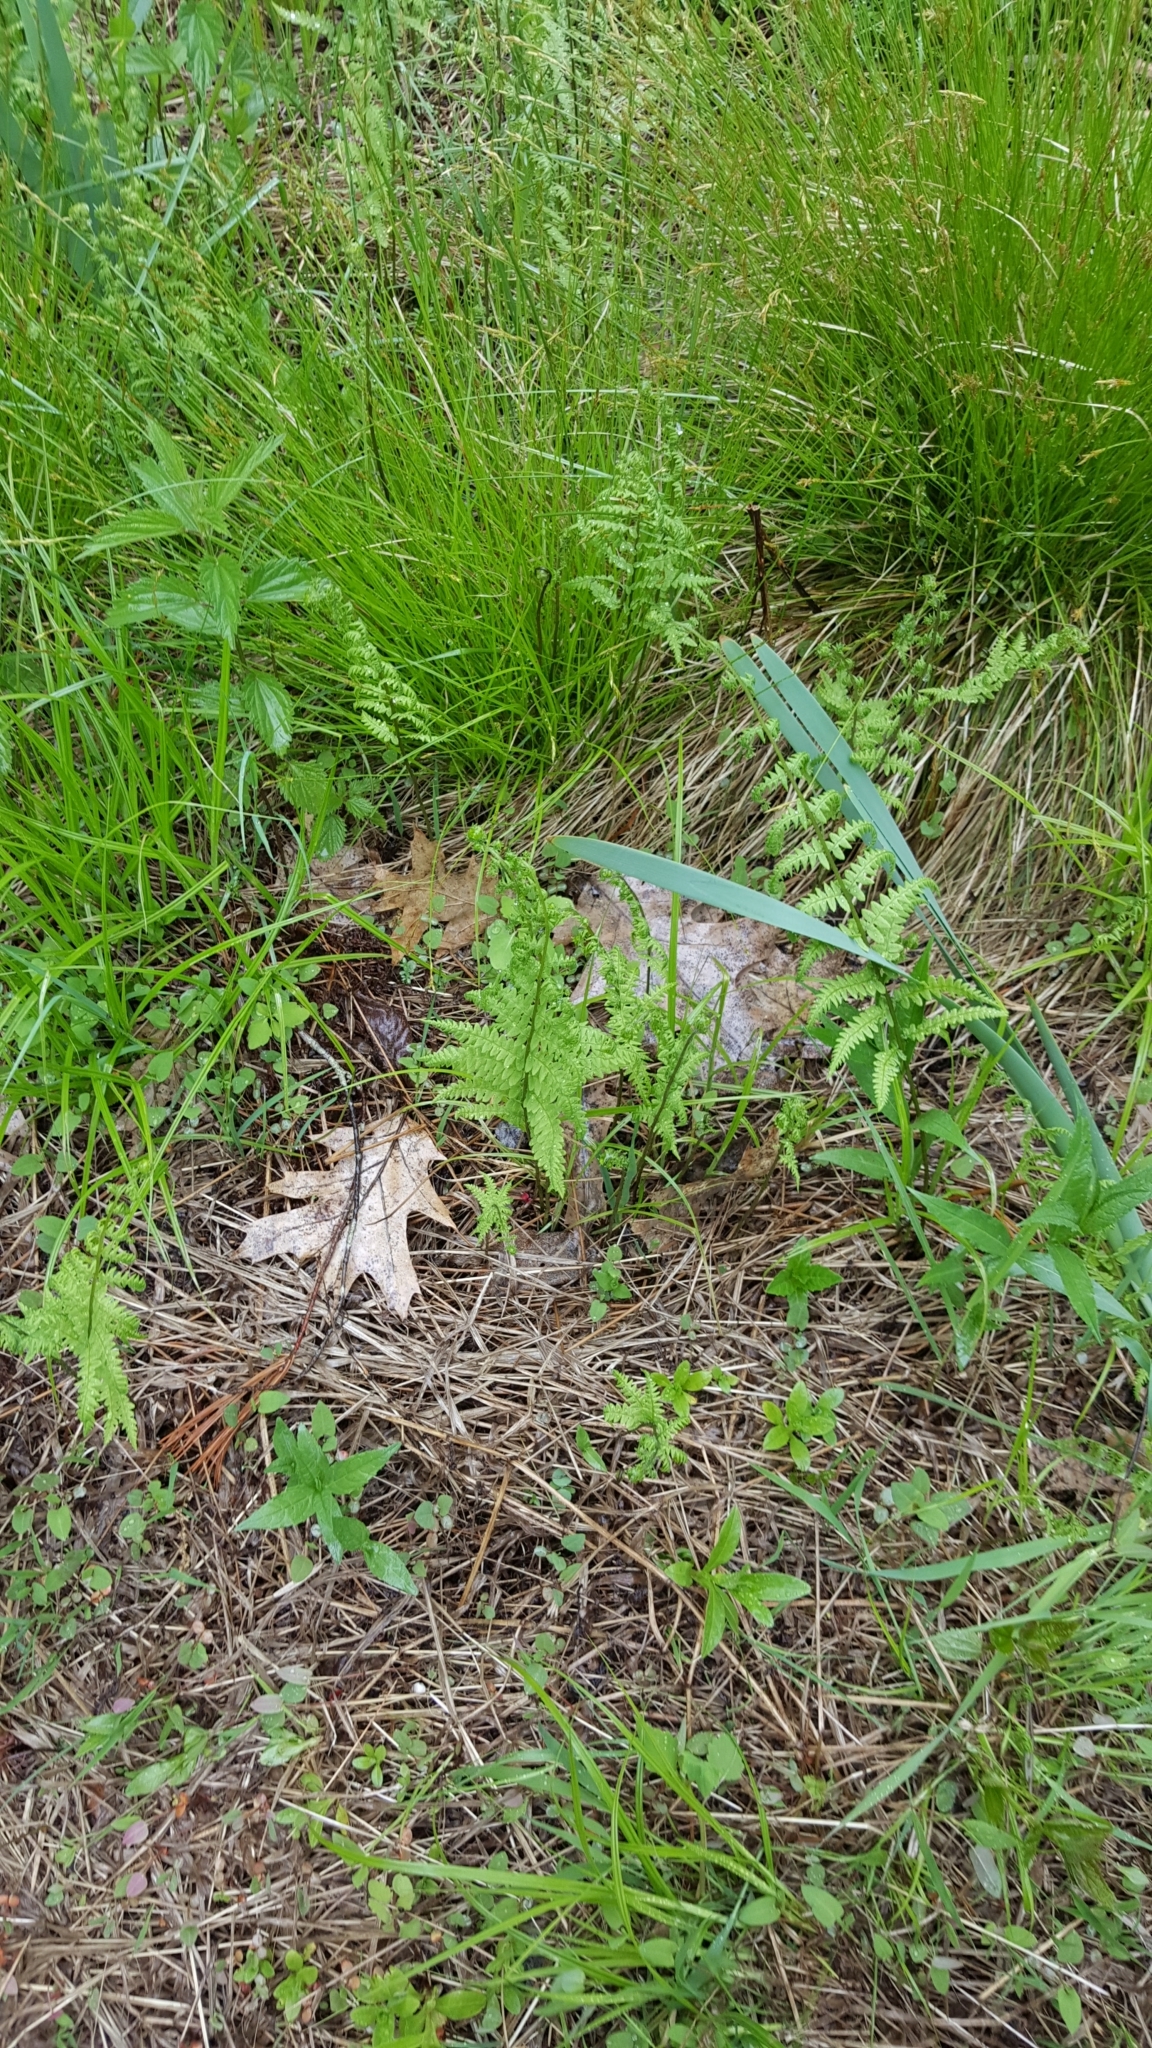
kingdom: Plantae
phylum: Tracheophyta
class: Polypodiopsida
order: Polypodiales
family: Thelypteridaceae
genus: Thelypteris
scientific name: Thelypteris palustris
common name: Marsh fern
